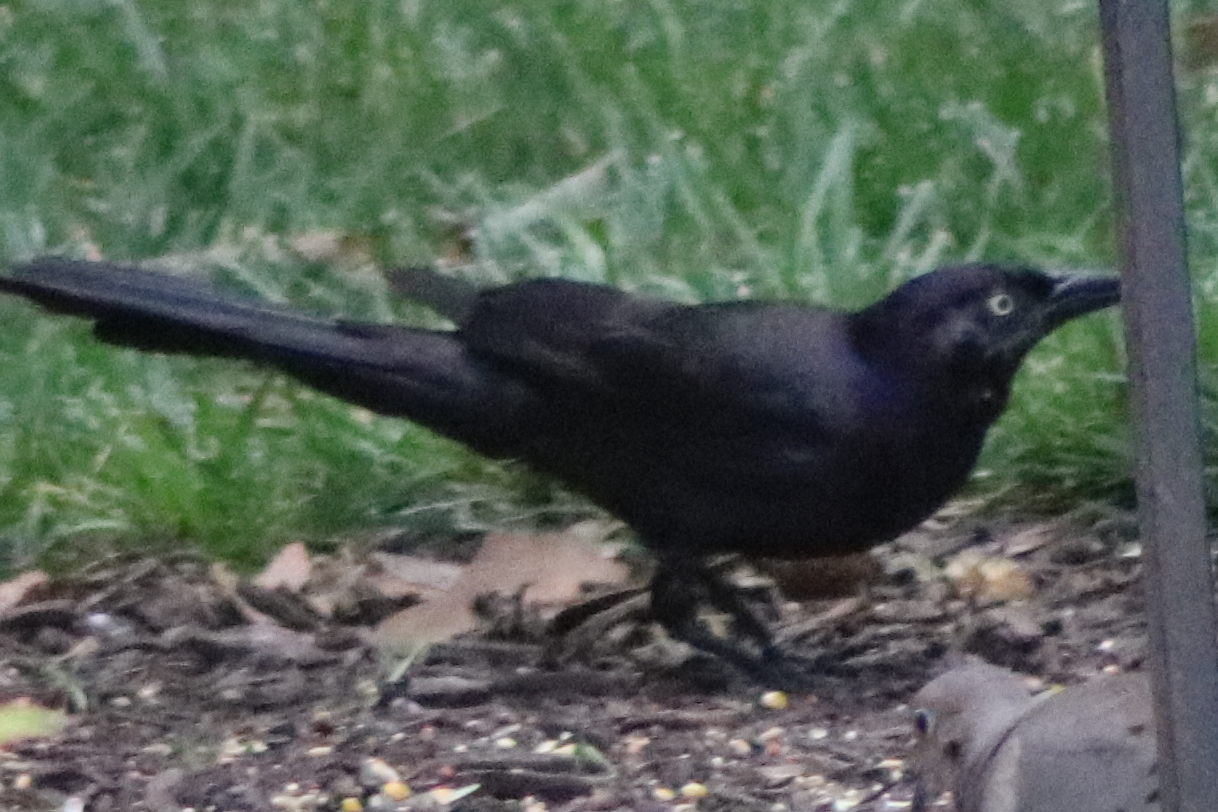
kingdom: Animalia
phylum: Chordata
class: Aves
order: Passeriformes
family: Icteridae
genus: Quiscalus
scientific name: Quiscalus quiscula
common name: Common grackle
